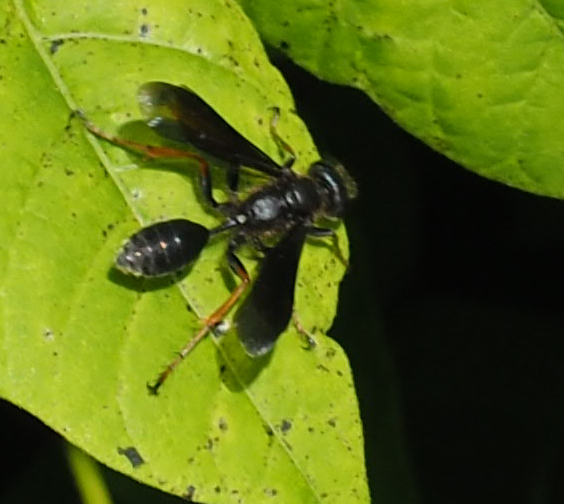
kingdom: Animalia
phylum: Arthropoda
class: Insecta
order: Hymenoptera
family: Sphecidae
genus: Isodontia
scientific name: Isodontia auripes
